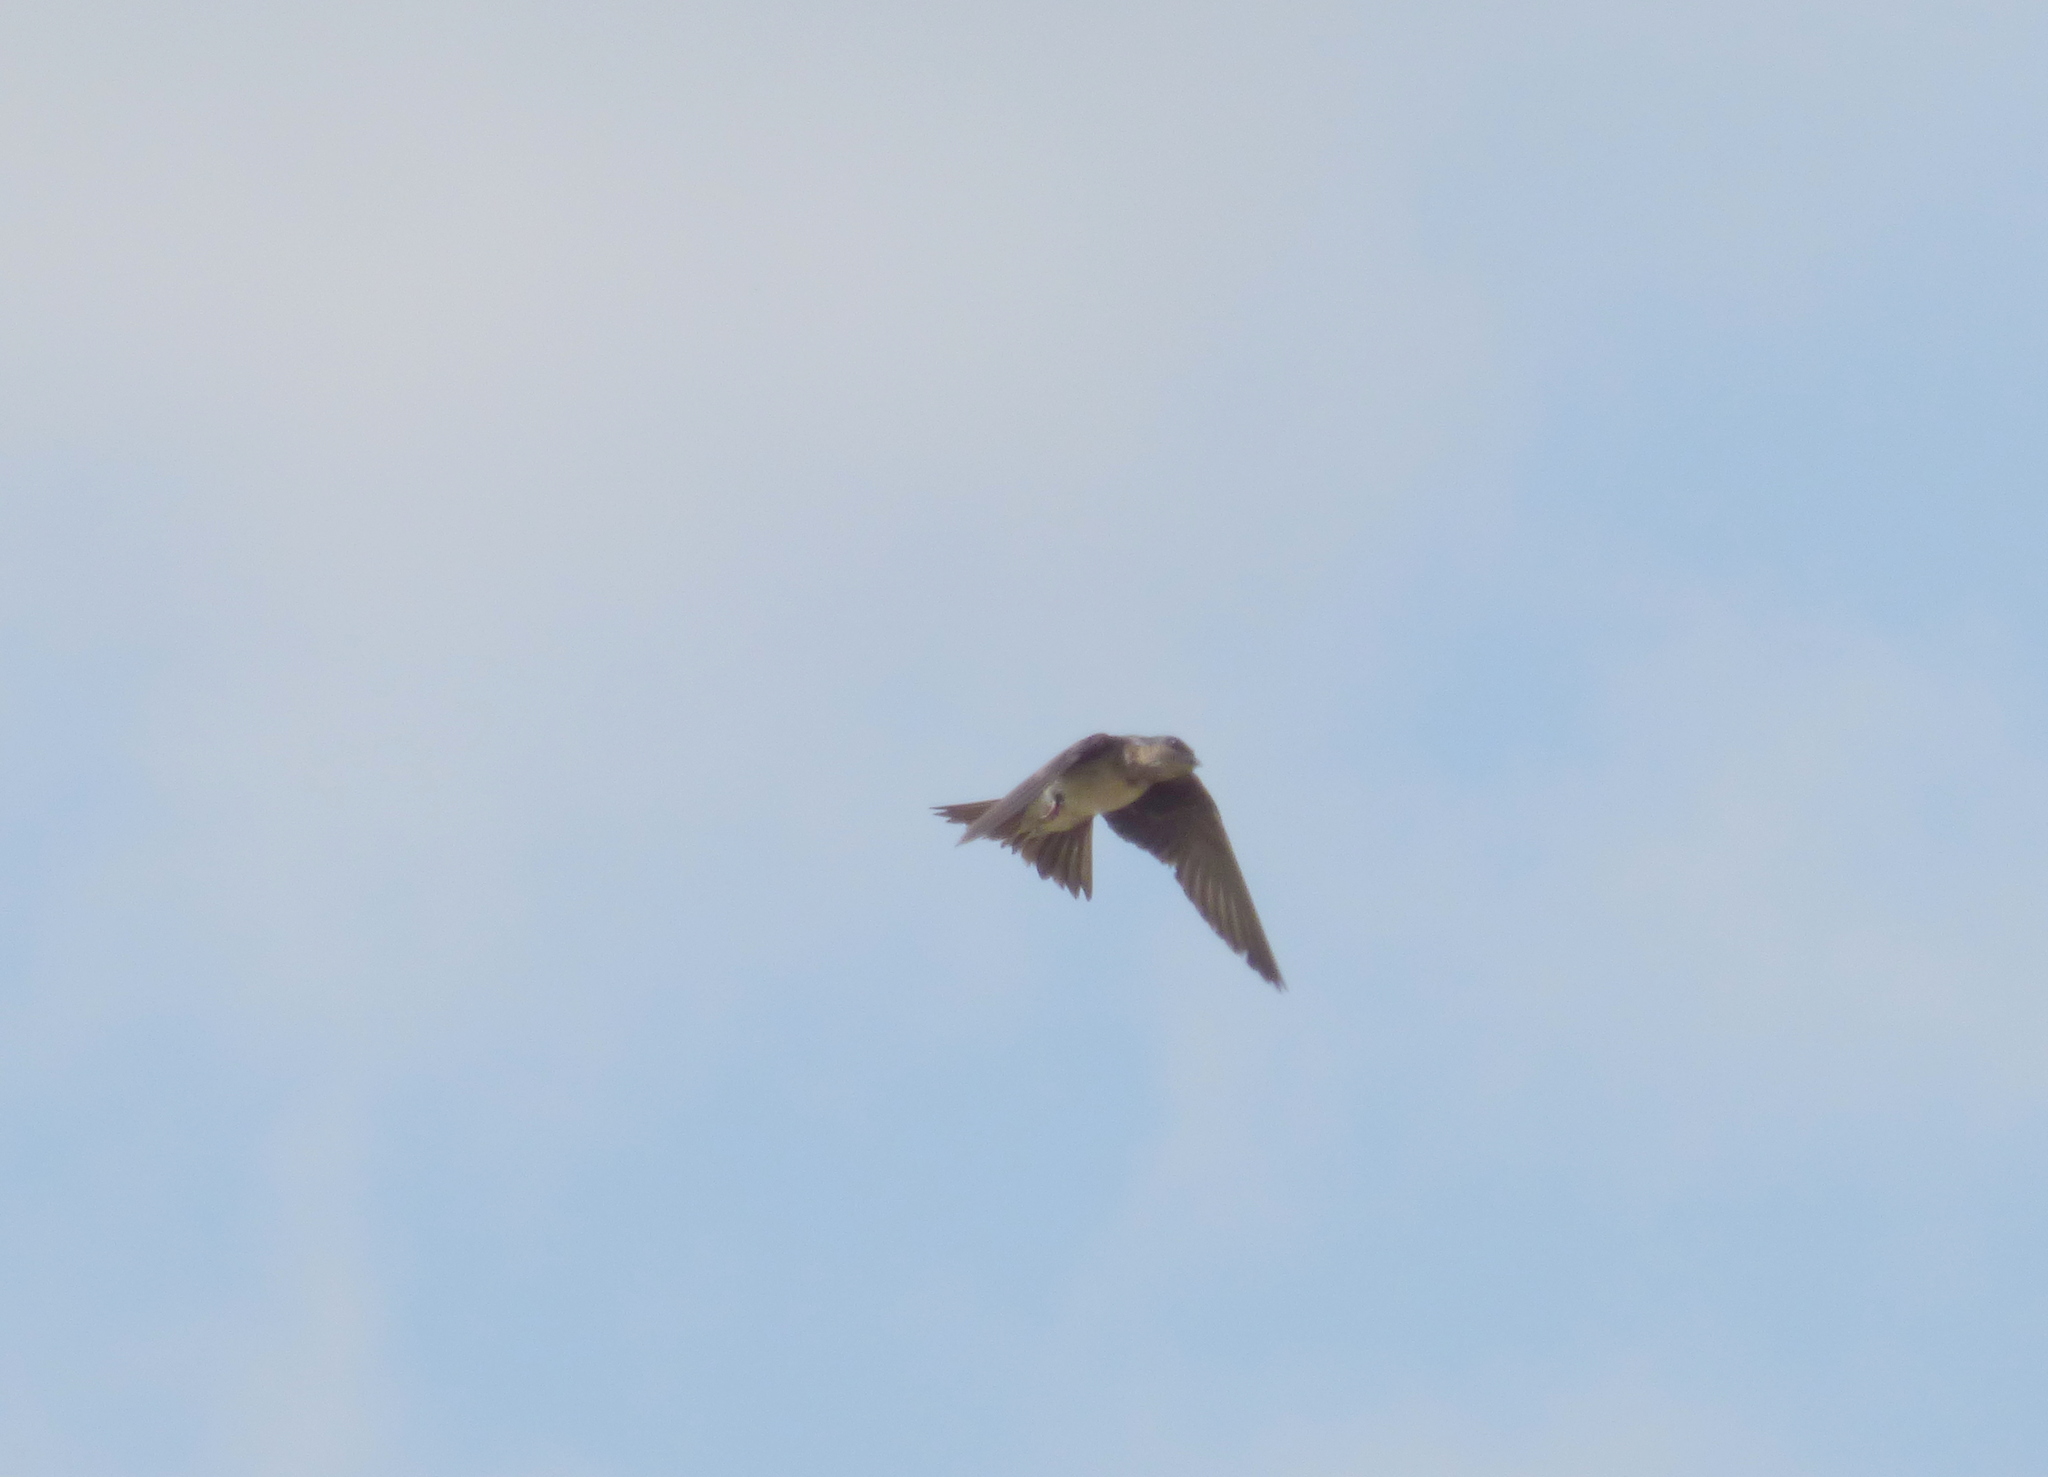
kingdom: Animalia
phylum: Chordata
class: Aves
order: Passeriformes
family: Hirundinidae
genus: Progne
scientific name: Progne chalybea
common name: Grey-breasted martin
